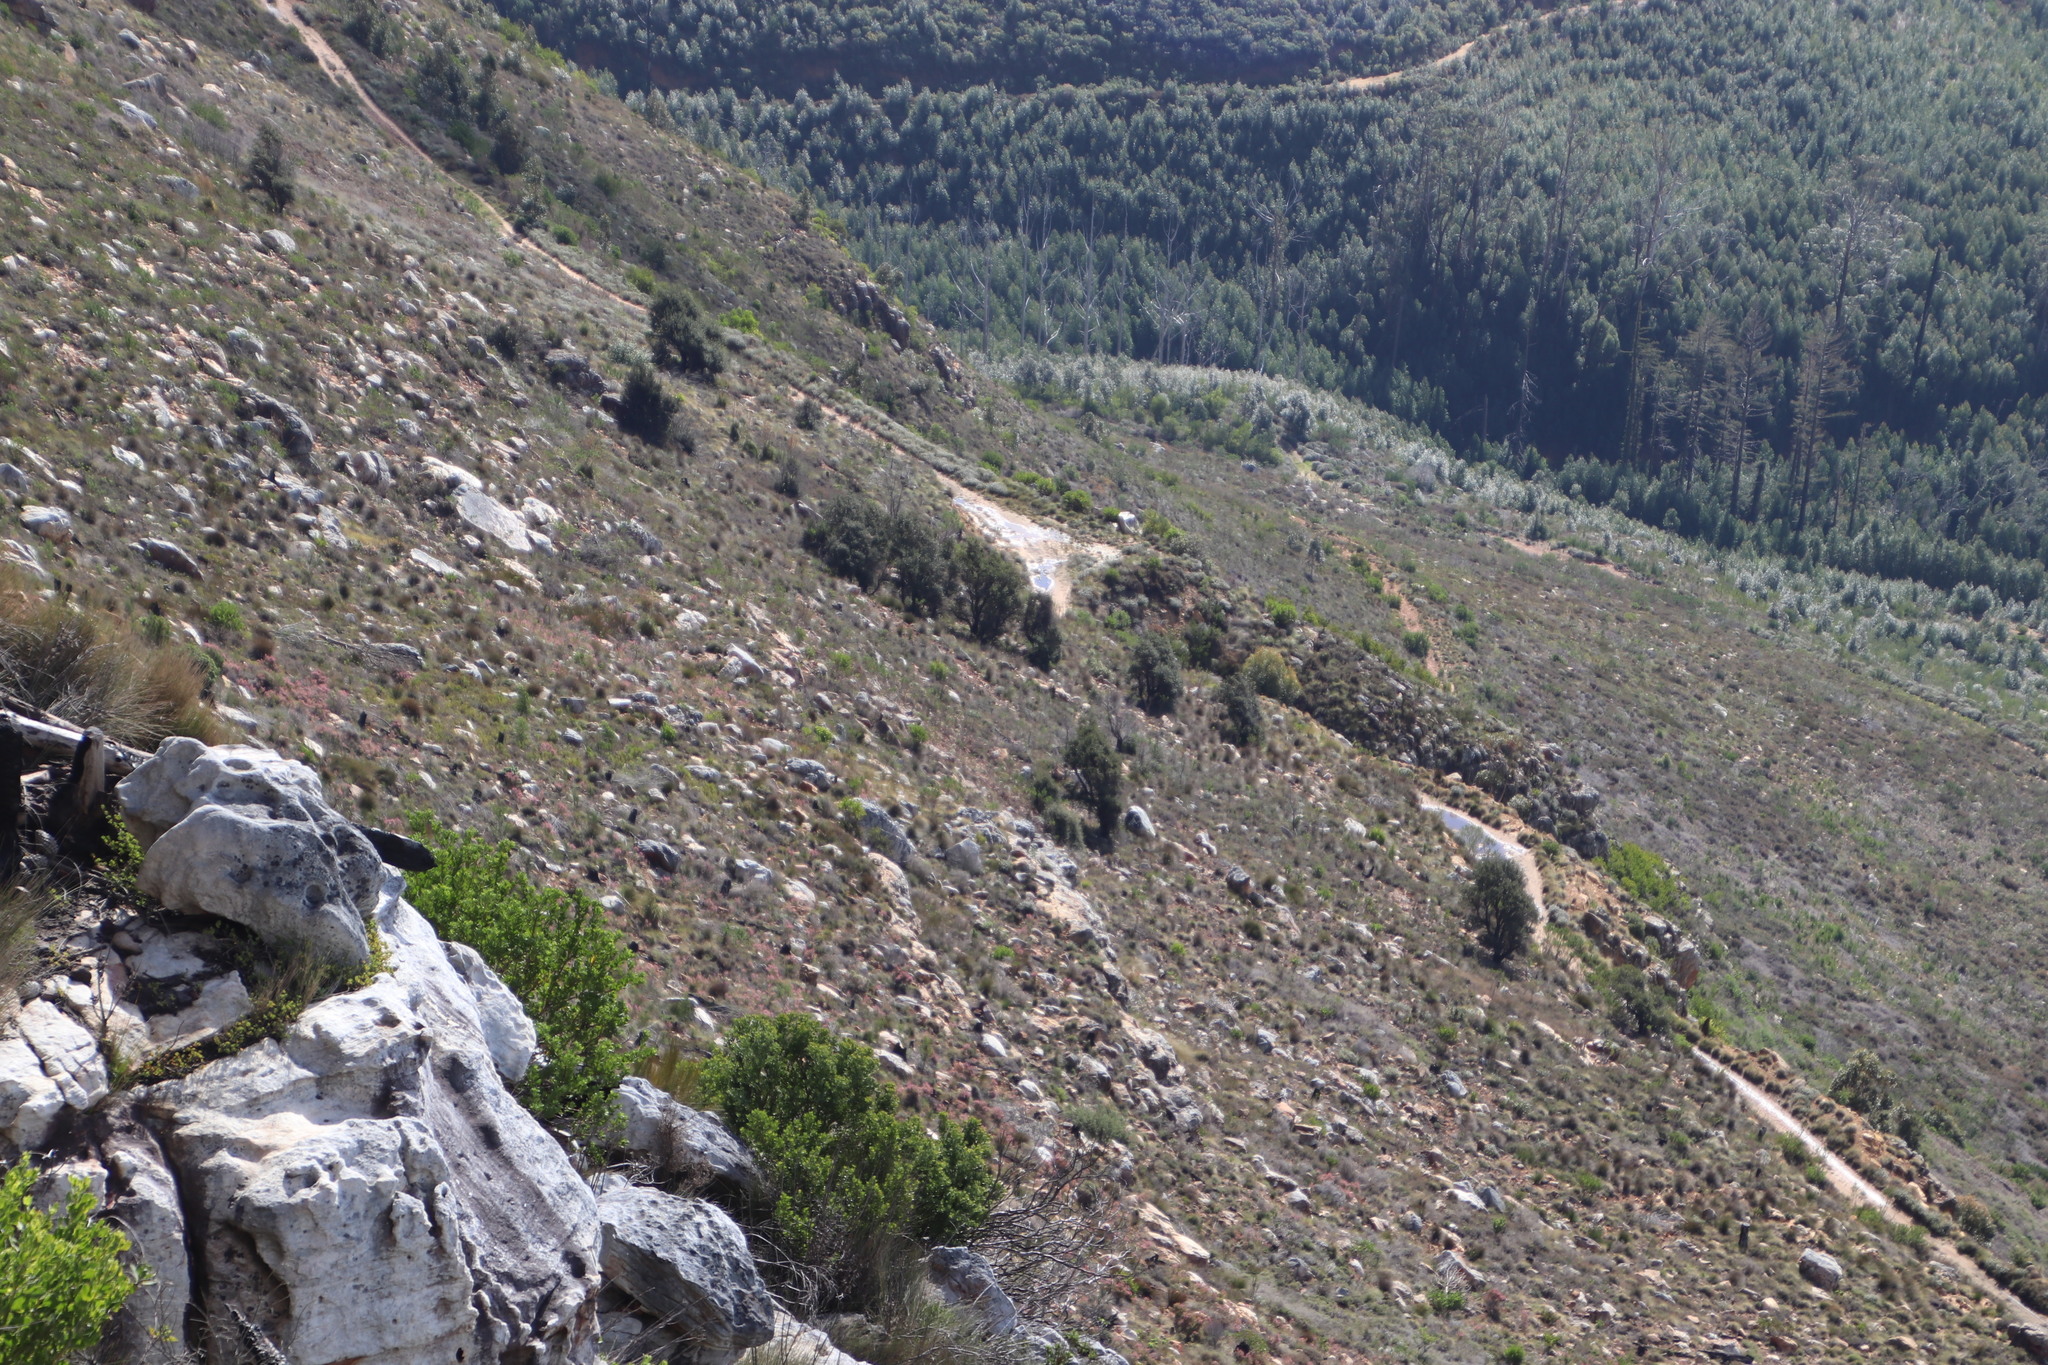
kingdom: Plantae
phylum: Tracheophyta
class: Magnoliopsida
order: Fagales
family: Fagaceae
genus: Quercus
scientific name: Quercus suber
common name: Cork oak
